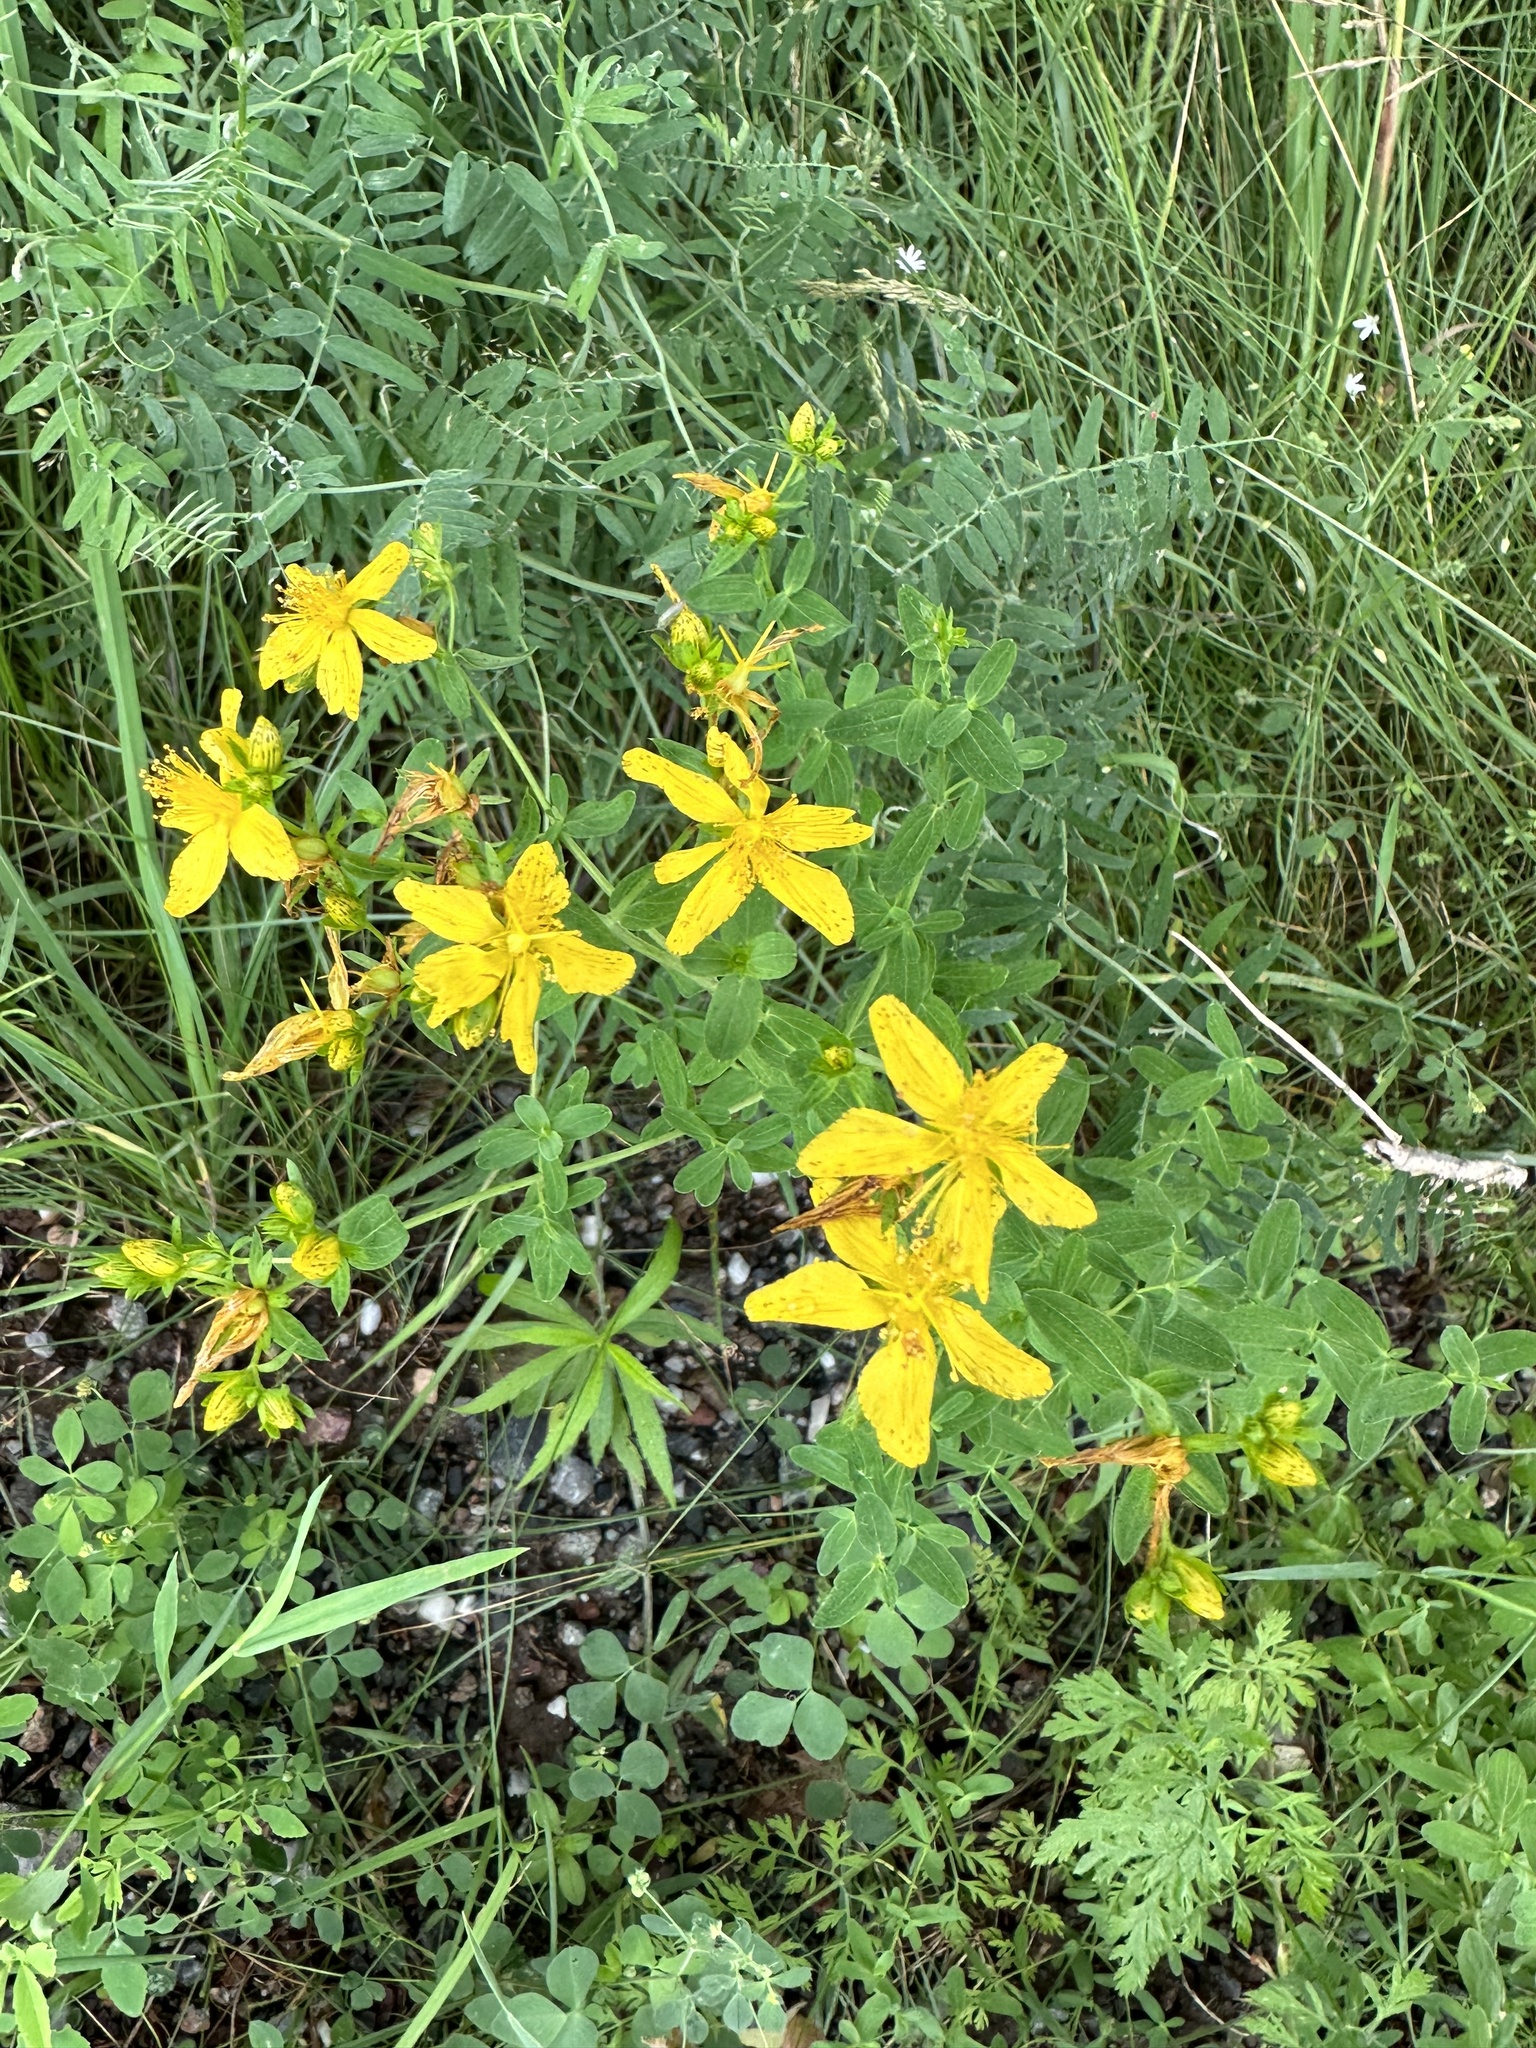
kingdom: Plantae
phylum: Tracheophyta
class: Magnoliopsida
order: Malpighiales
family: Hypericaceae
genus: Hypericum
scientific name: Hypericum perforatum
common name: Common st. johnswort
